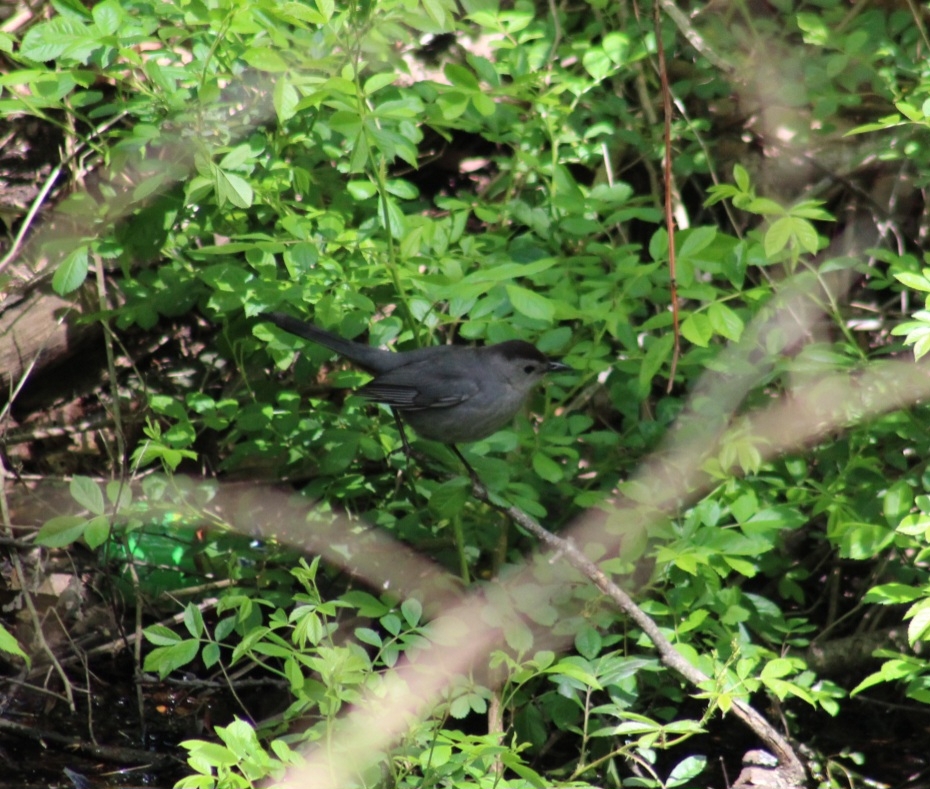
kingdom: Animalia
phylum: Chordata
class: Aves
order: Passeriformes
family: Mimidae
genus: Dumetella
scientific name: Dumetella carolinensis
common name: Gray catbird
